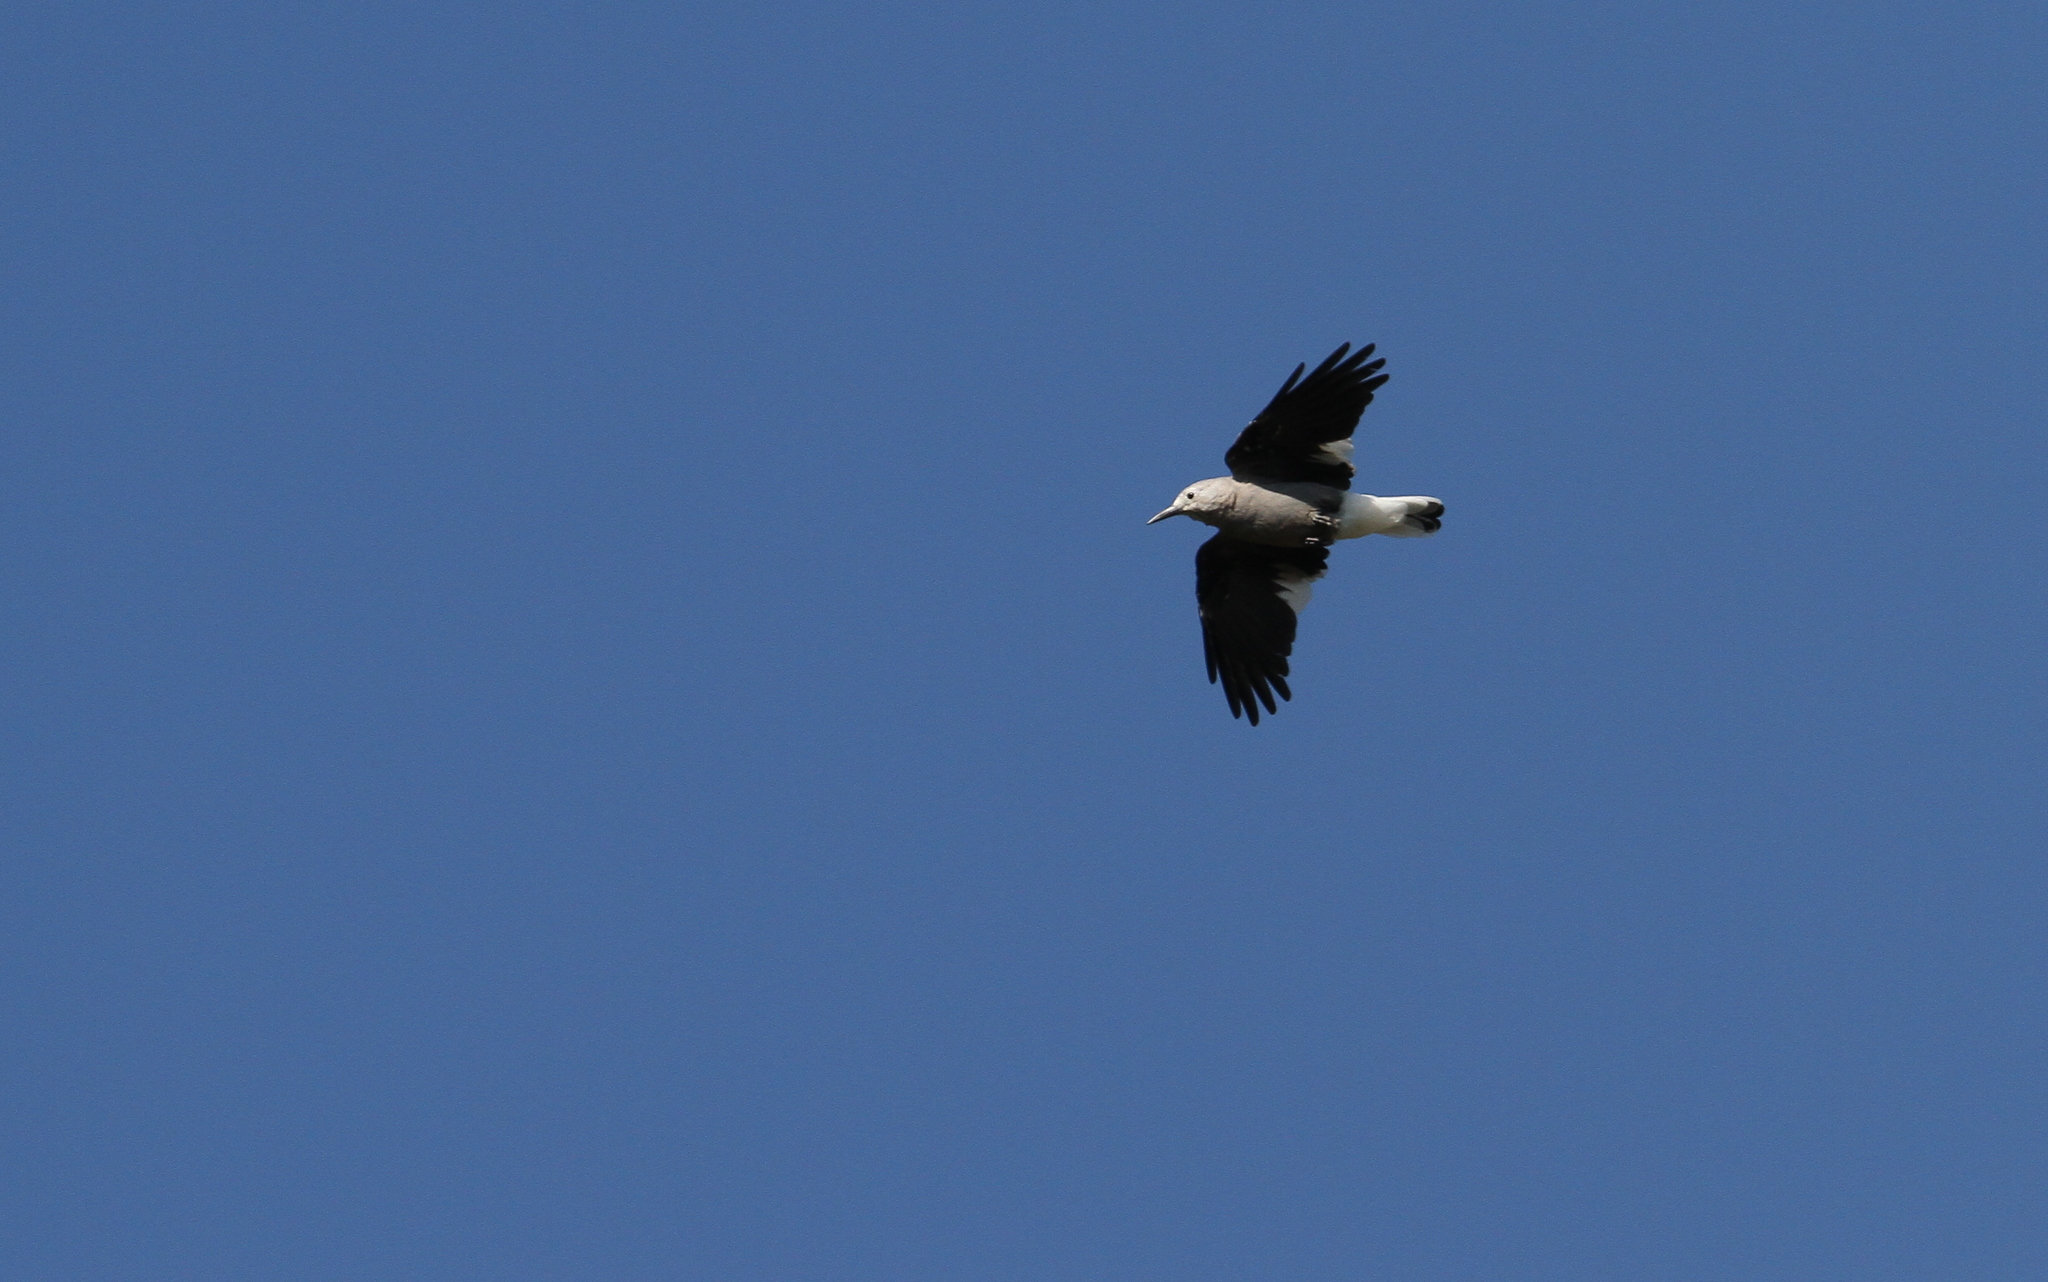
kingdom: Animalia
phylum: Chordata
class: Aves
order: Passeriformes
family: Corvidae
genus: Nucifraga
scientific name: Nucifraga columbiana
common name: Clark's nutcracker
